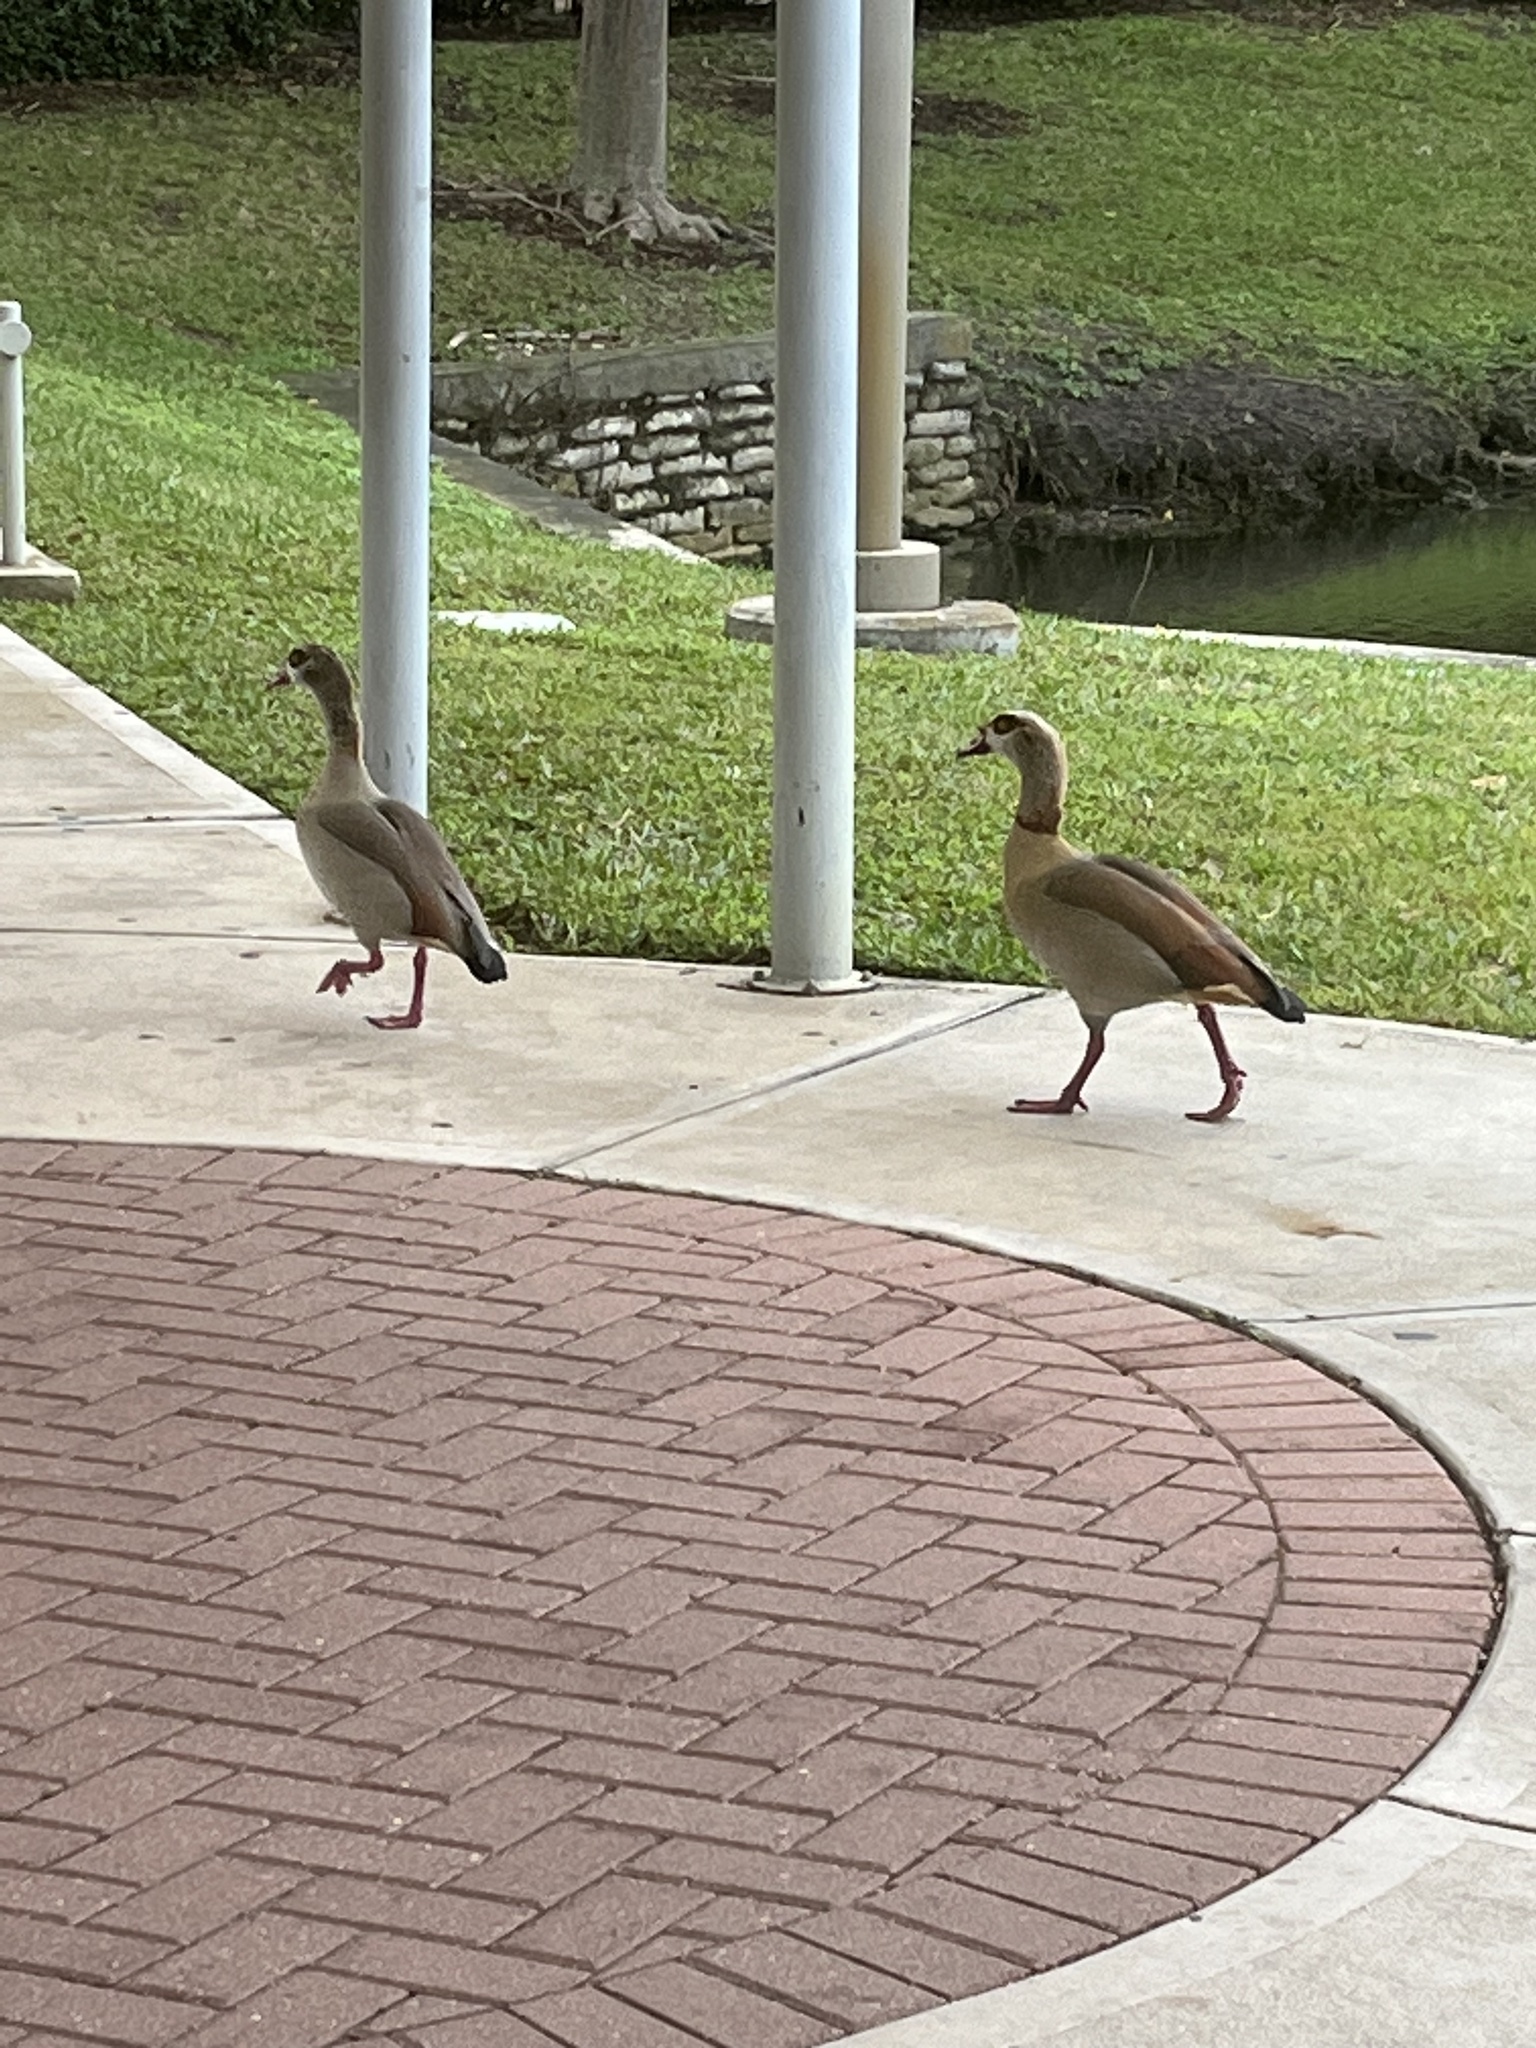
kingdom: Animalia
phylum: Chordata
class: Aves
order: Anseriformes
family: Anatidae
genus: Alopochen
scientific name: Alopochen aegyptiaca
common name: Egyptian goose
